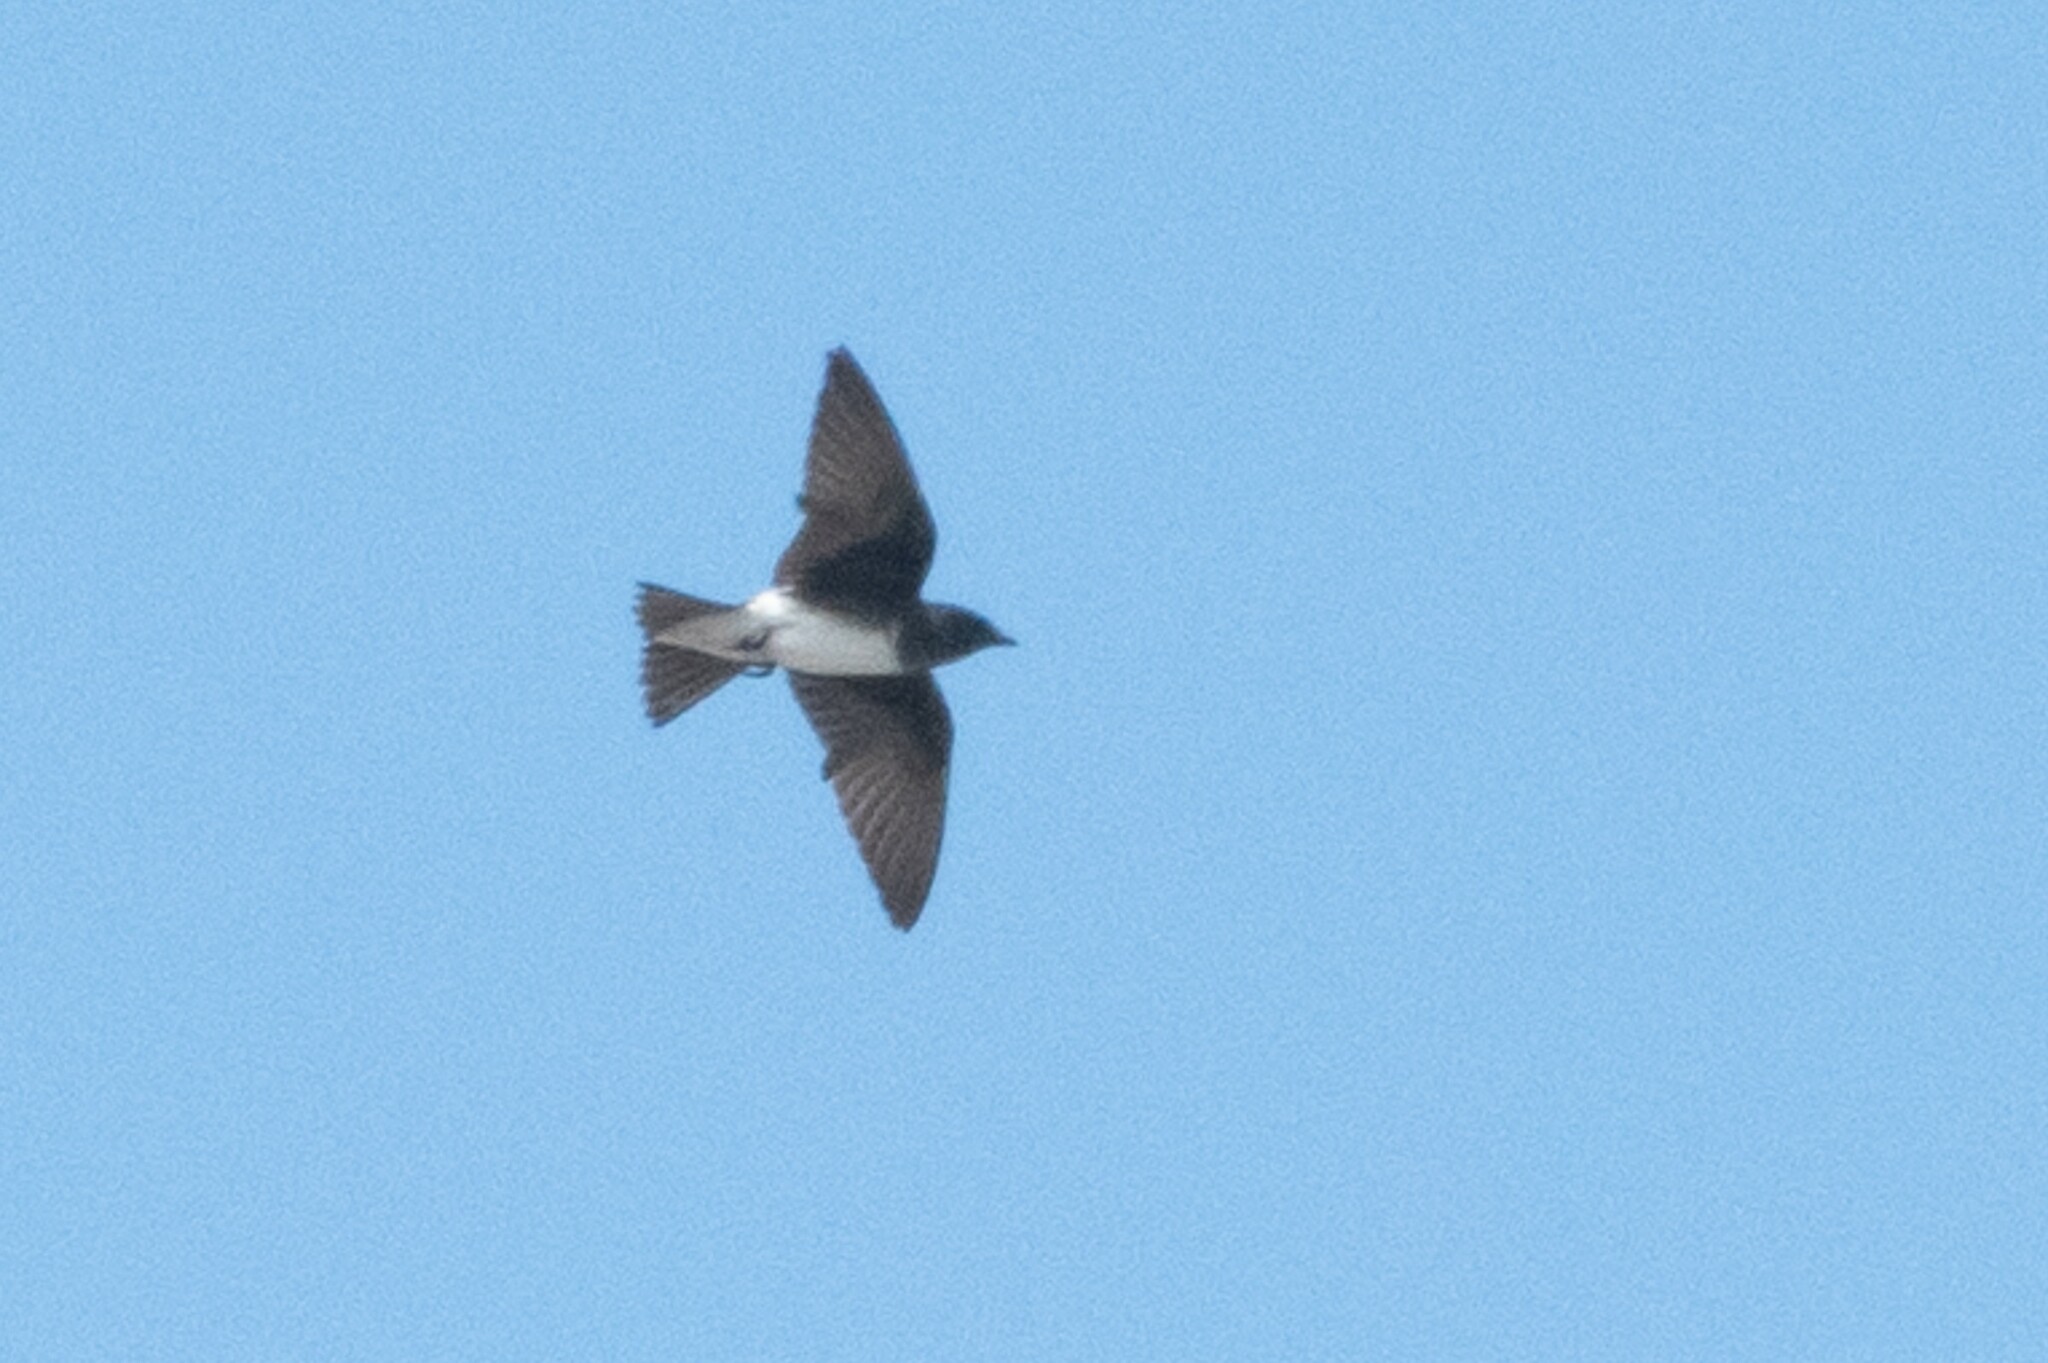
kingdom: Animalia
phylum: Chordata
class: Aves
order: Passeriformes
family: Hirundinidae
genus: Progne
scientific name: Progne dominicensis
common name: Caribbean martin
